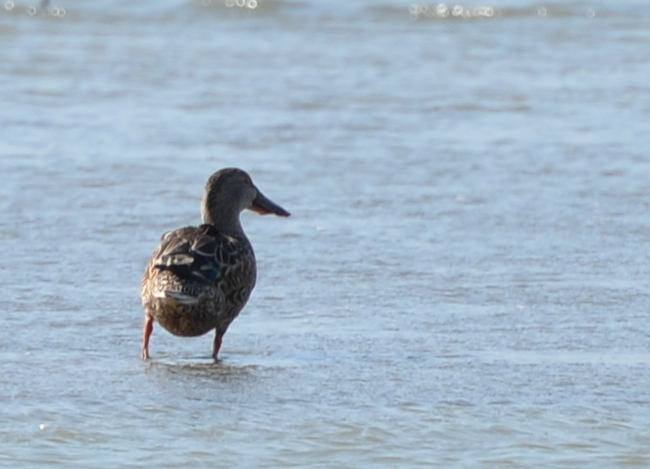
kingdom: Animalia
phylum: Chordata
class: Aves
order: Anseriformes
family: Anatidae
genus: Spatula
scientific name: Spatula clypeata
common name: Northern shoveler
